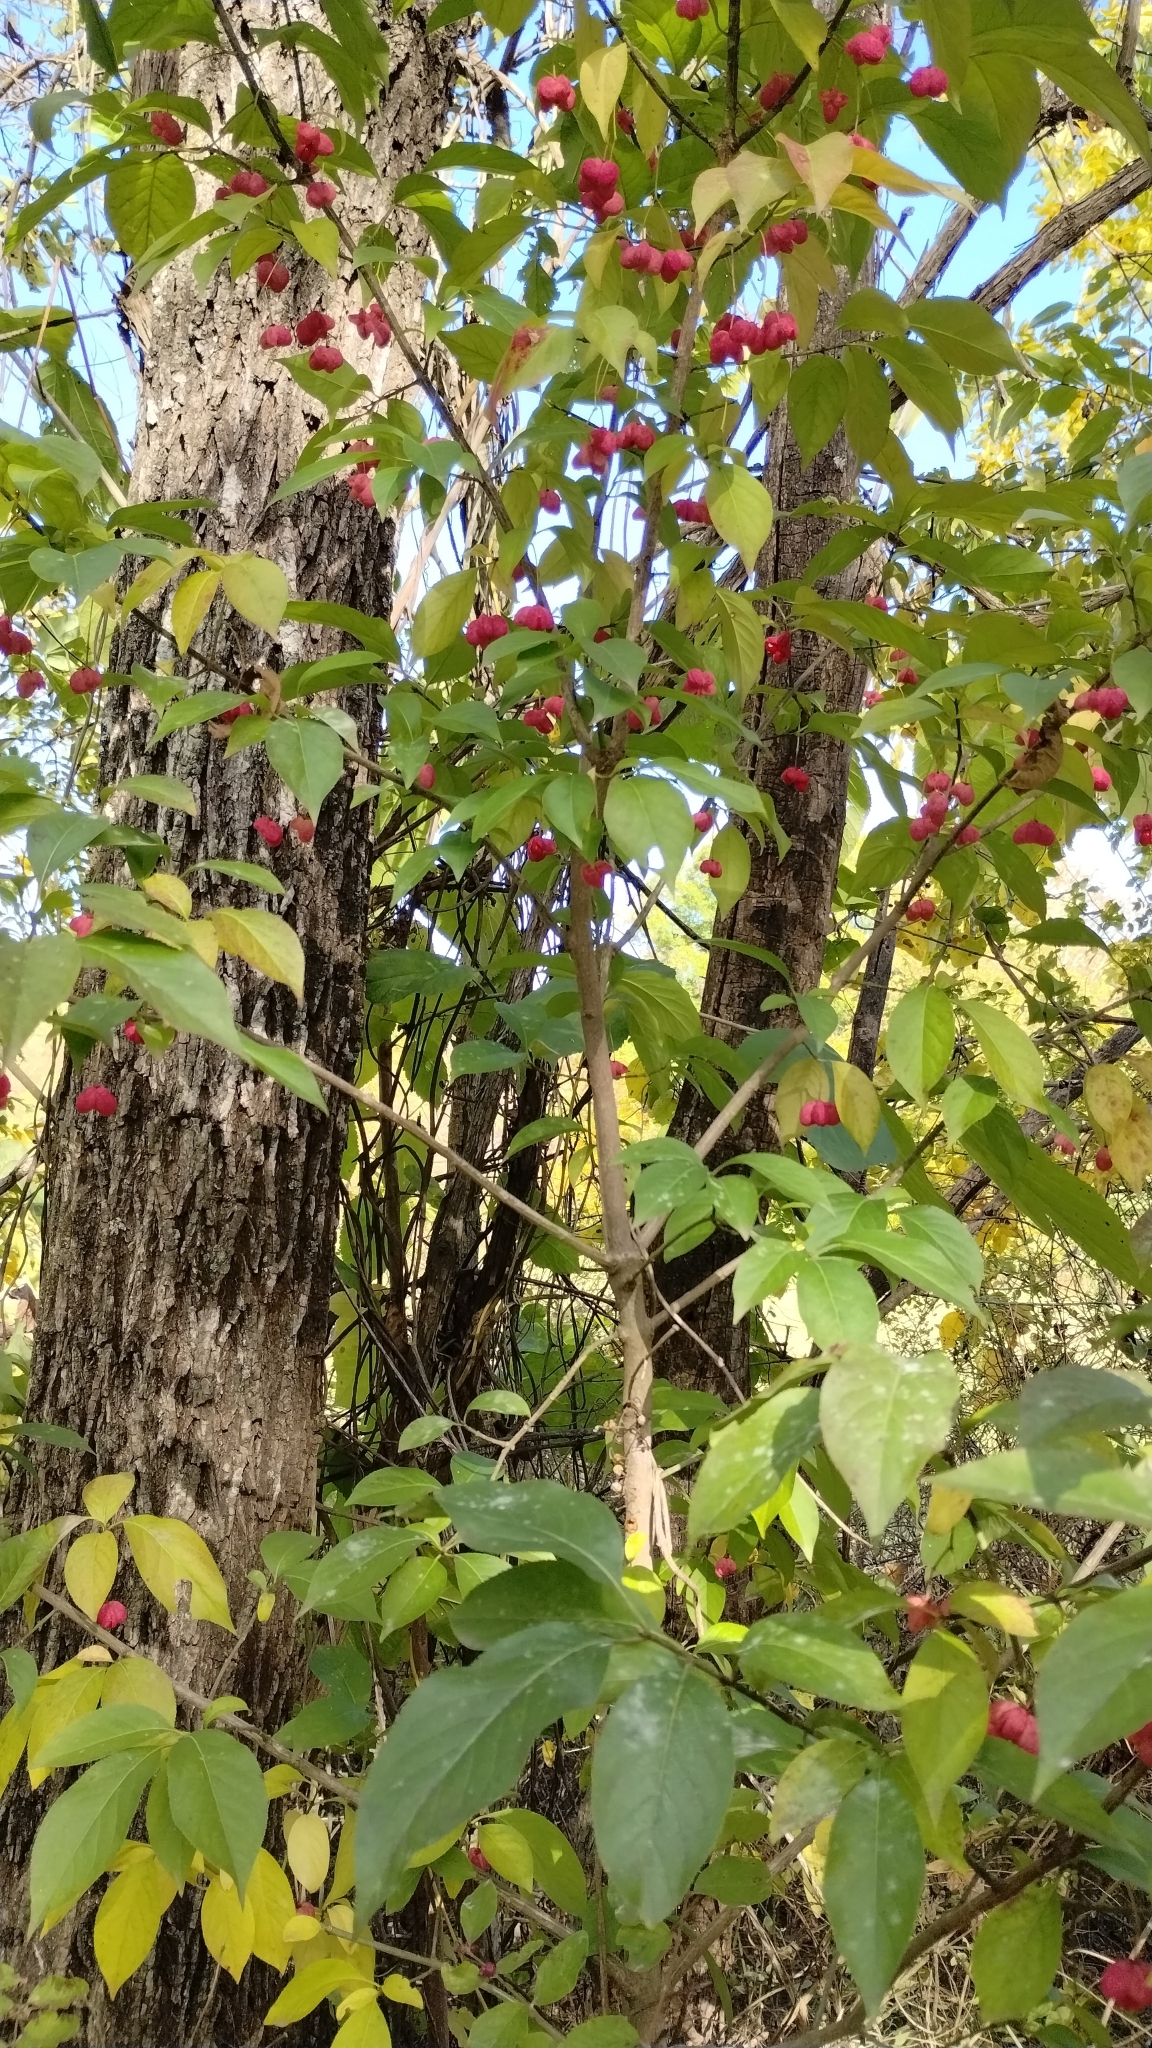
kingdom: Plantae
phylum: Tracheophyta
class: Magnoliopsida
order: Celastrales
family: Celastraceae
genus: Euonymus
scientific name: Euonymus atropurpureus
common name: Eastern wahoo
